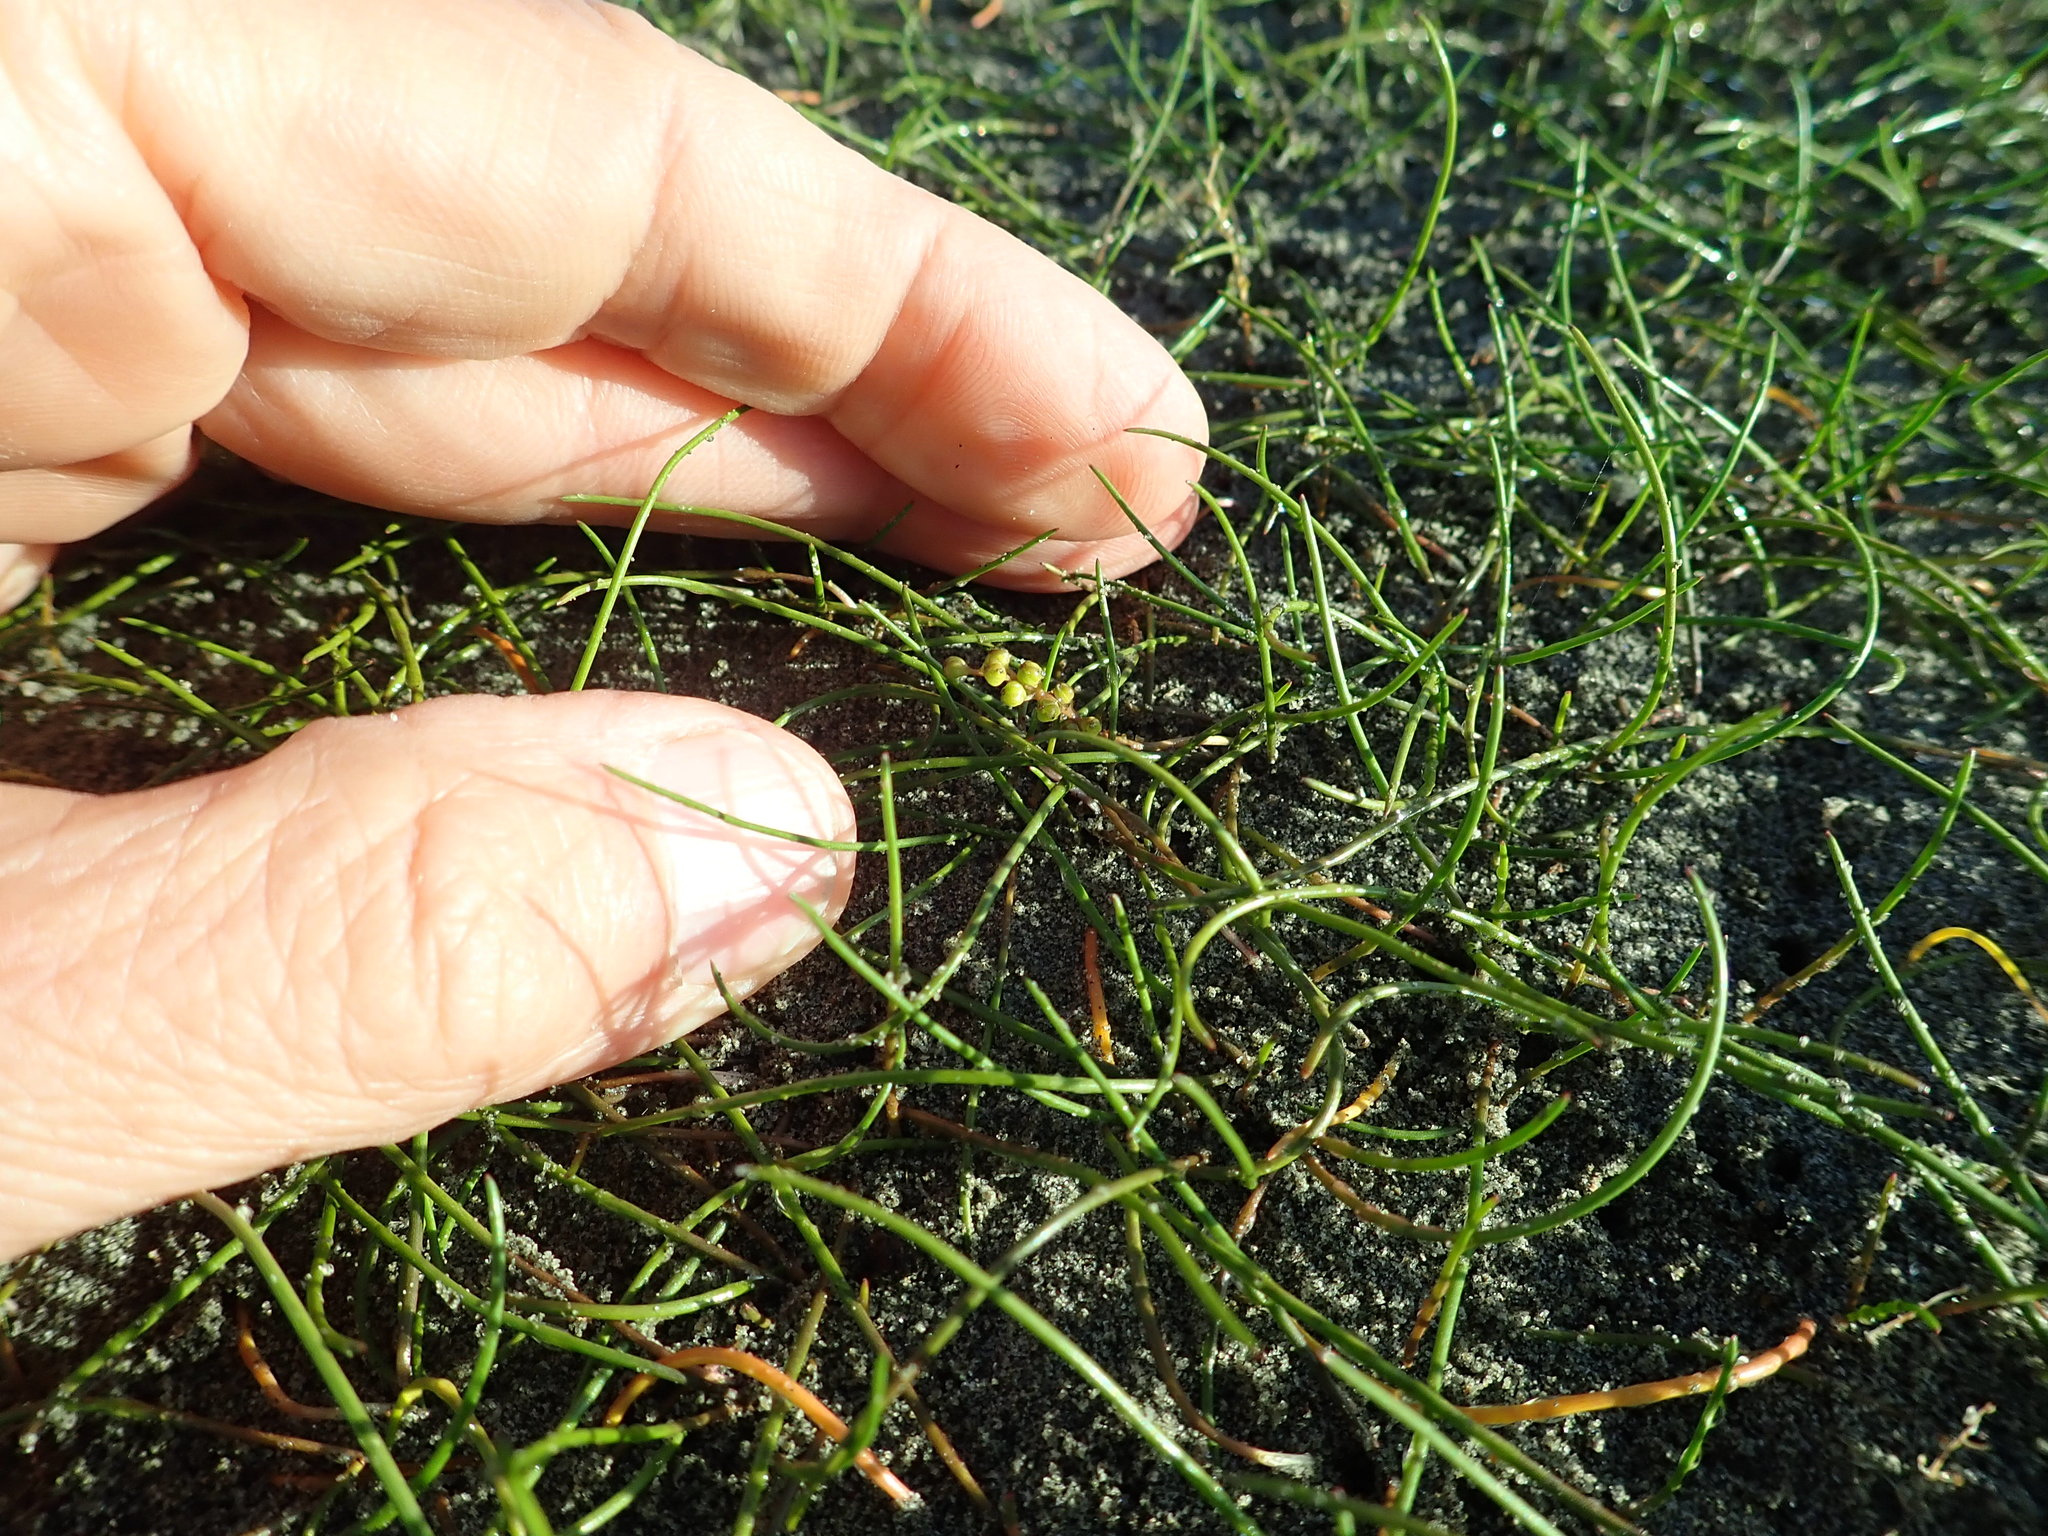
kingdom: Plantae
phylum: Tracheophyta
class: Liliopsida
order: Alismatales
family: Juncaginaceae
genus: Triglochin
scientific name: Triglochin striata
